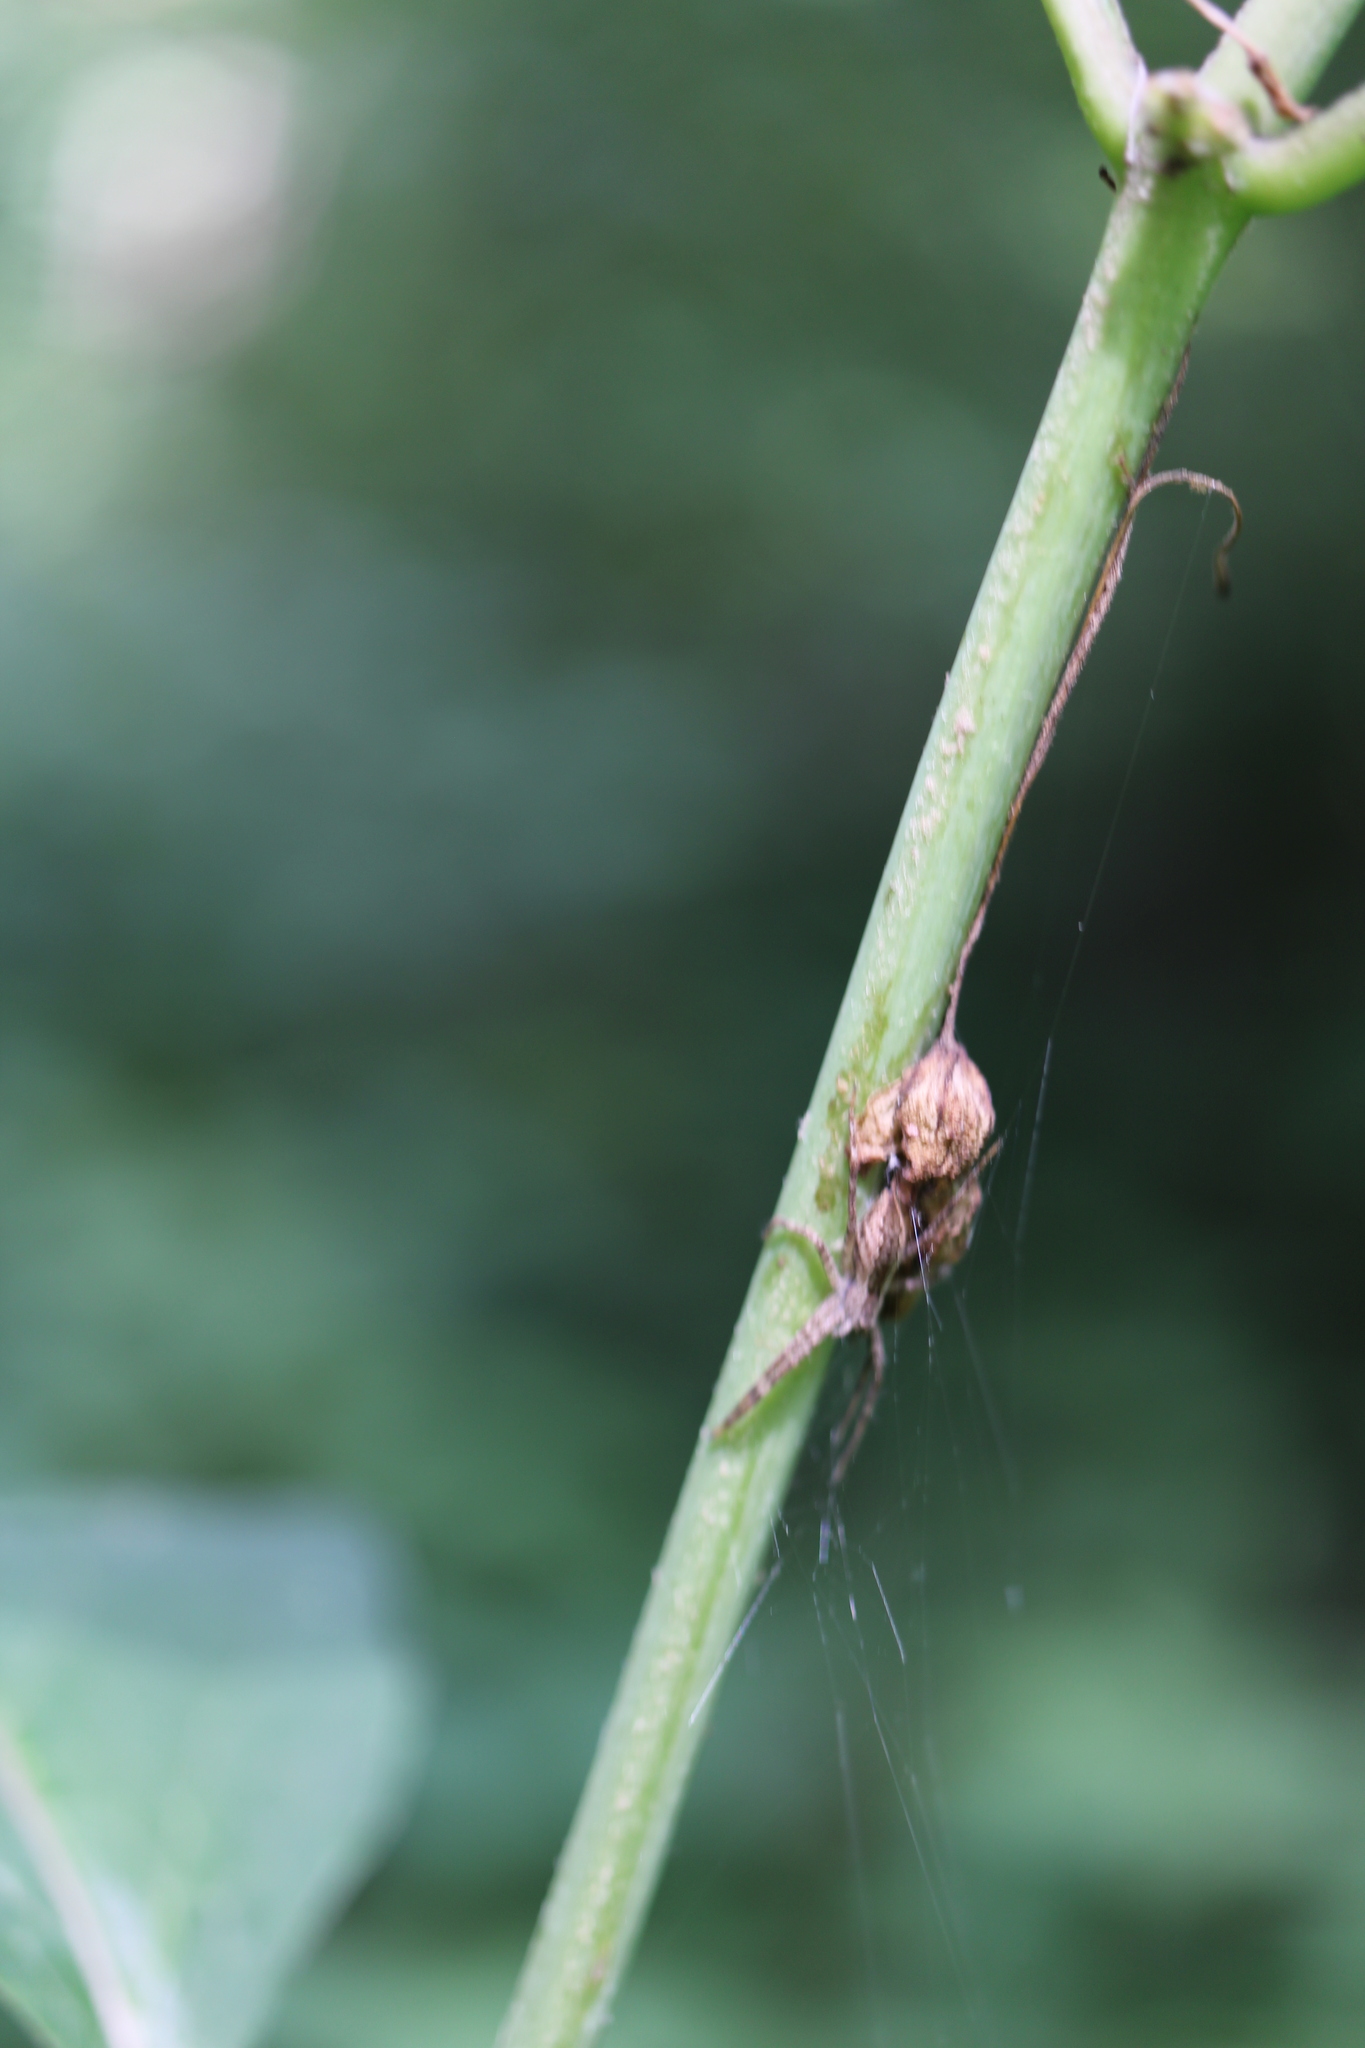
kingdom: Animalia
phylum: Arthropoda
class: Arachnida
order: Araneae
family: Pisauridae
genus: Pisaurina
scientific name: Pisaurina mira
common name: American nursery web spider
